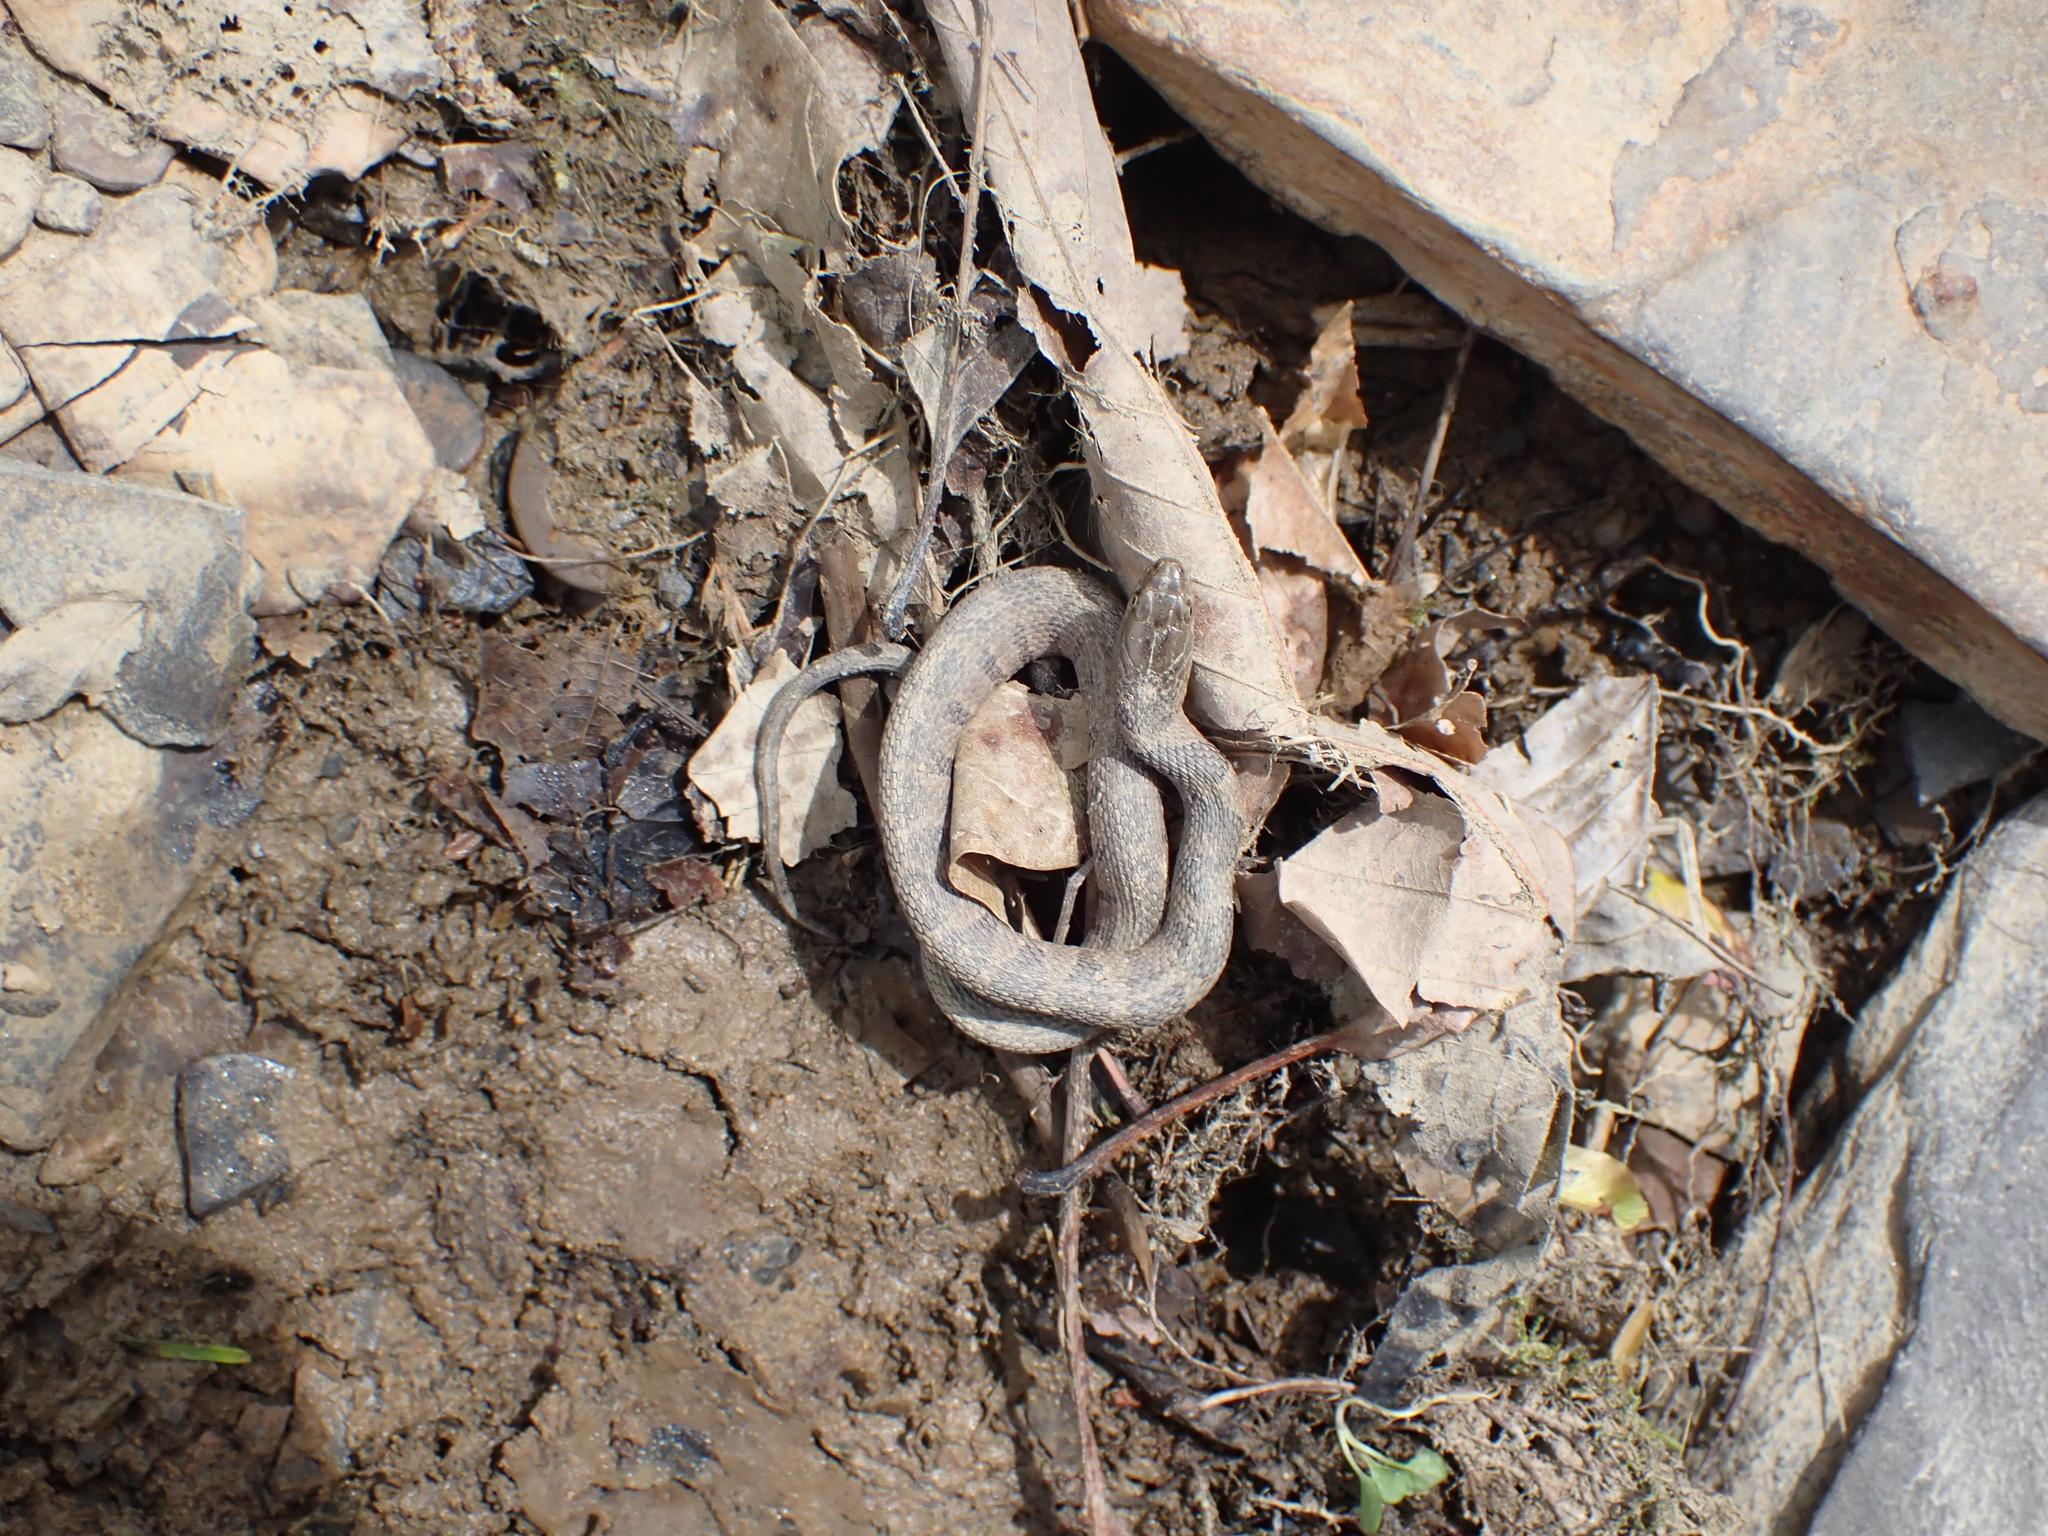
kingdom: Animalia
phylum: Chordata
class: Squamata
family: Colubridae
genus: Nerodia
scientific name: Nerodia sipedon
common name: Northern water snake
